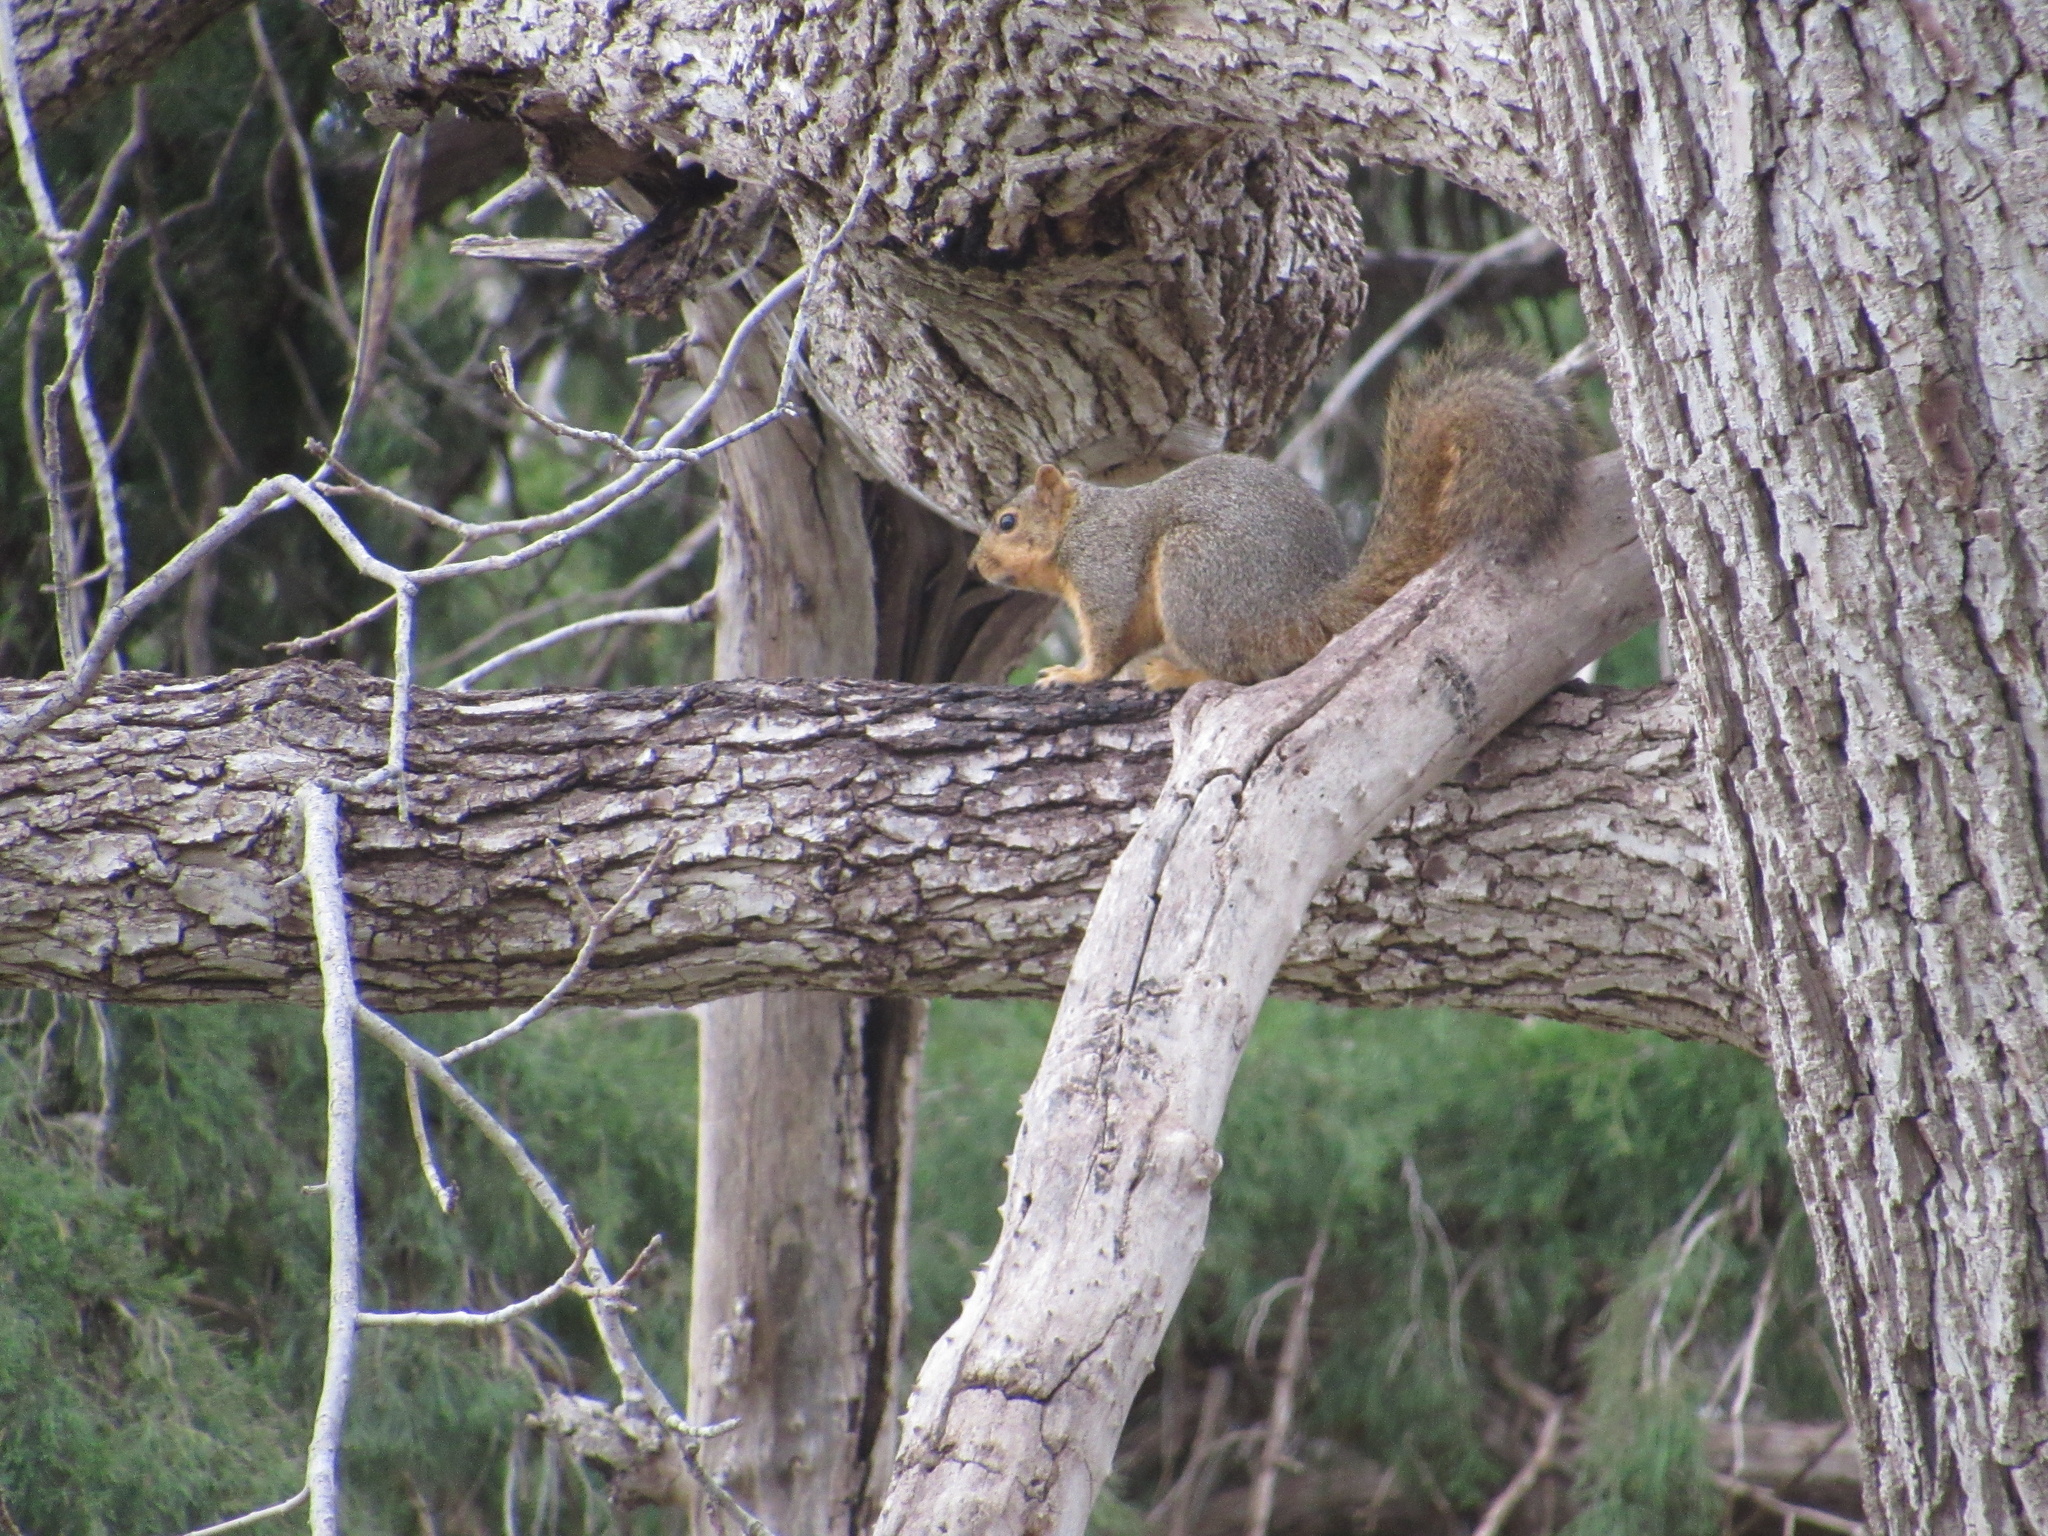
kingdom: Animalia
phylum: Chordata
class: Mammalia
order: Rodentia
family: Sciuridae
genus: Sciurus
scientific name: Sciurus niger
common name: Fox squirrel
